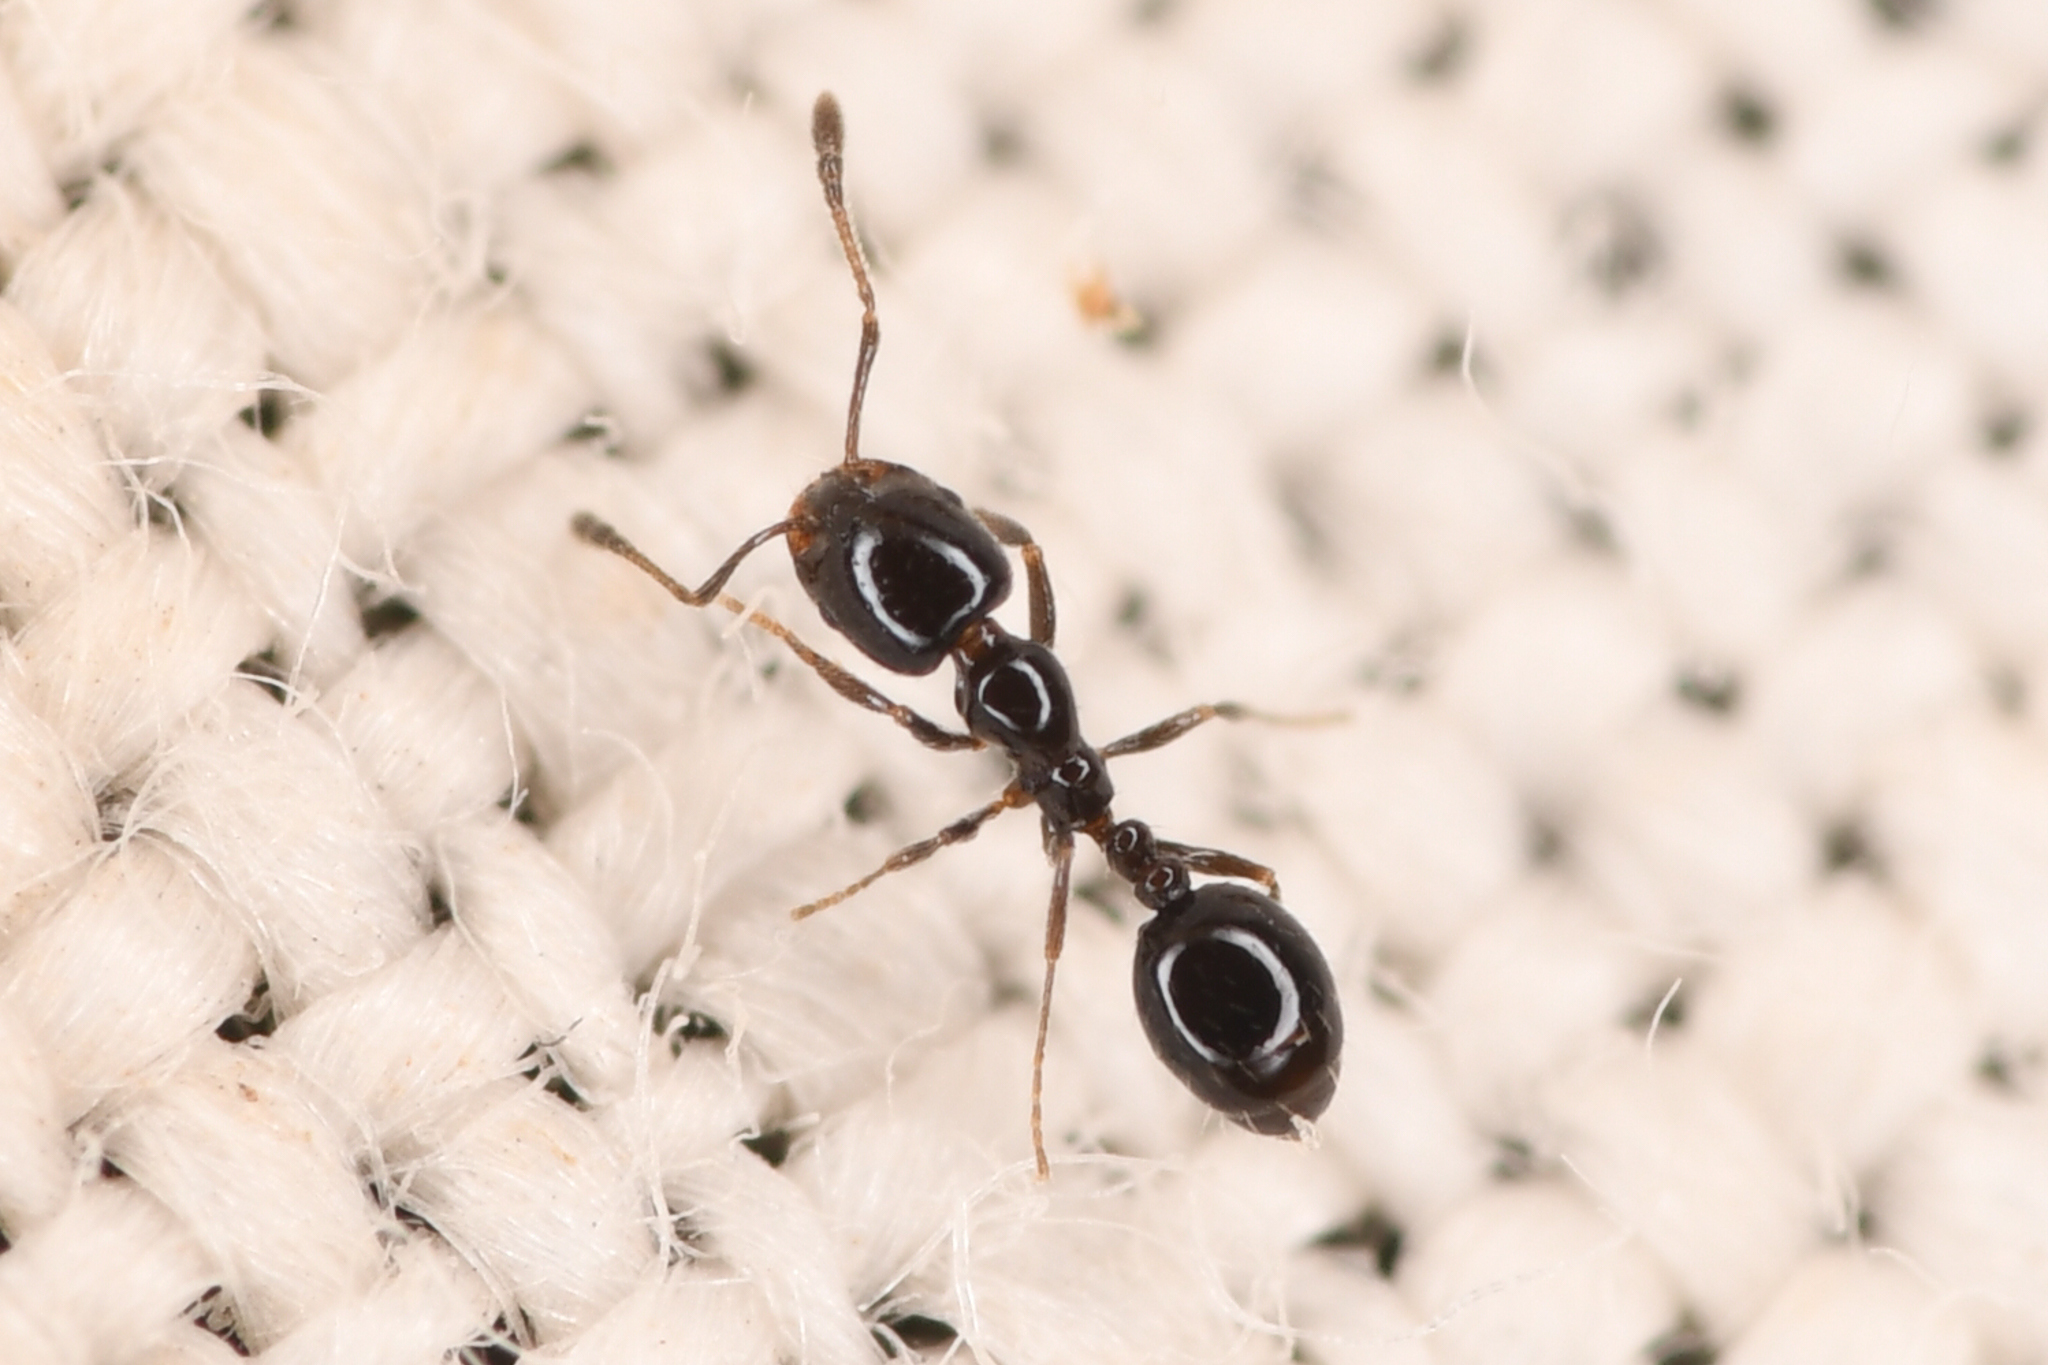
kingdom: Animalia
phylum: Arthropoda
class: Insecta
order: Hymenoptera
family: Formicidae
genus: Monomorium
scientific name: Monomorium ergatogyna
